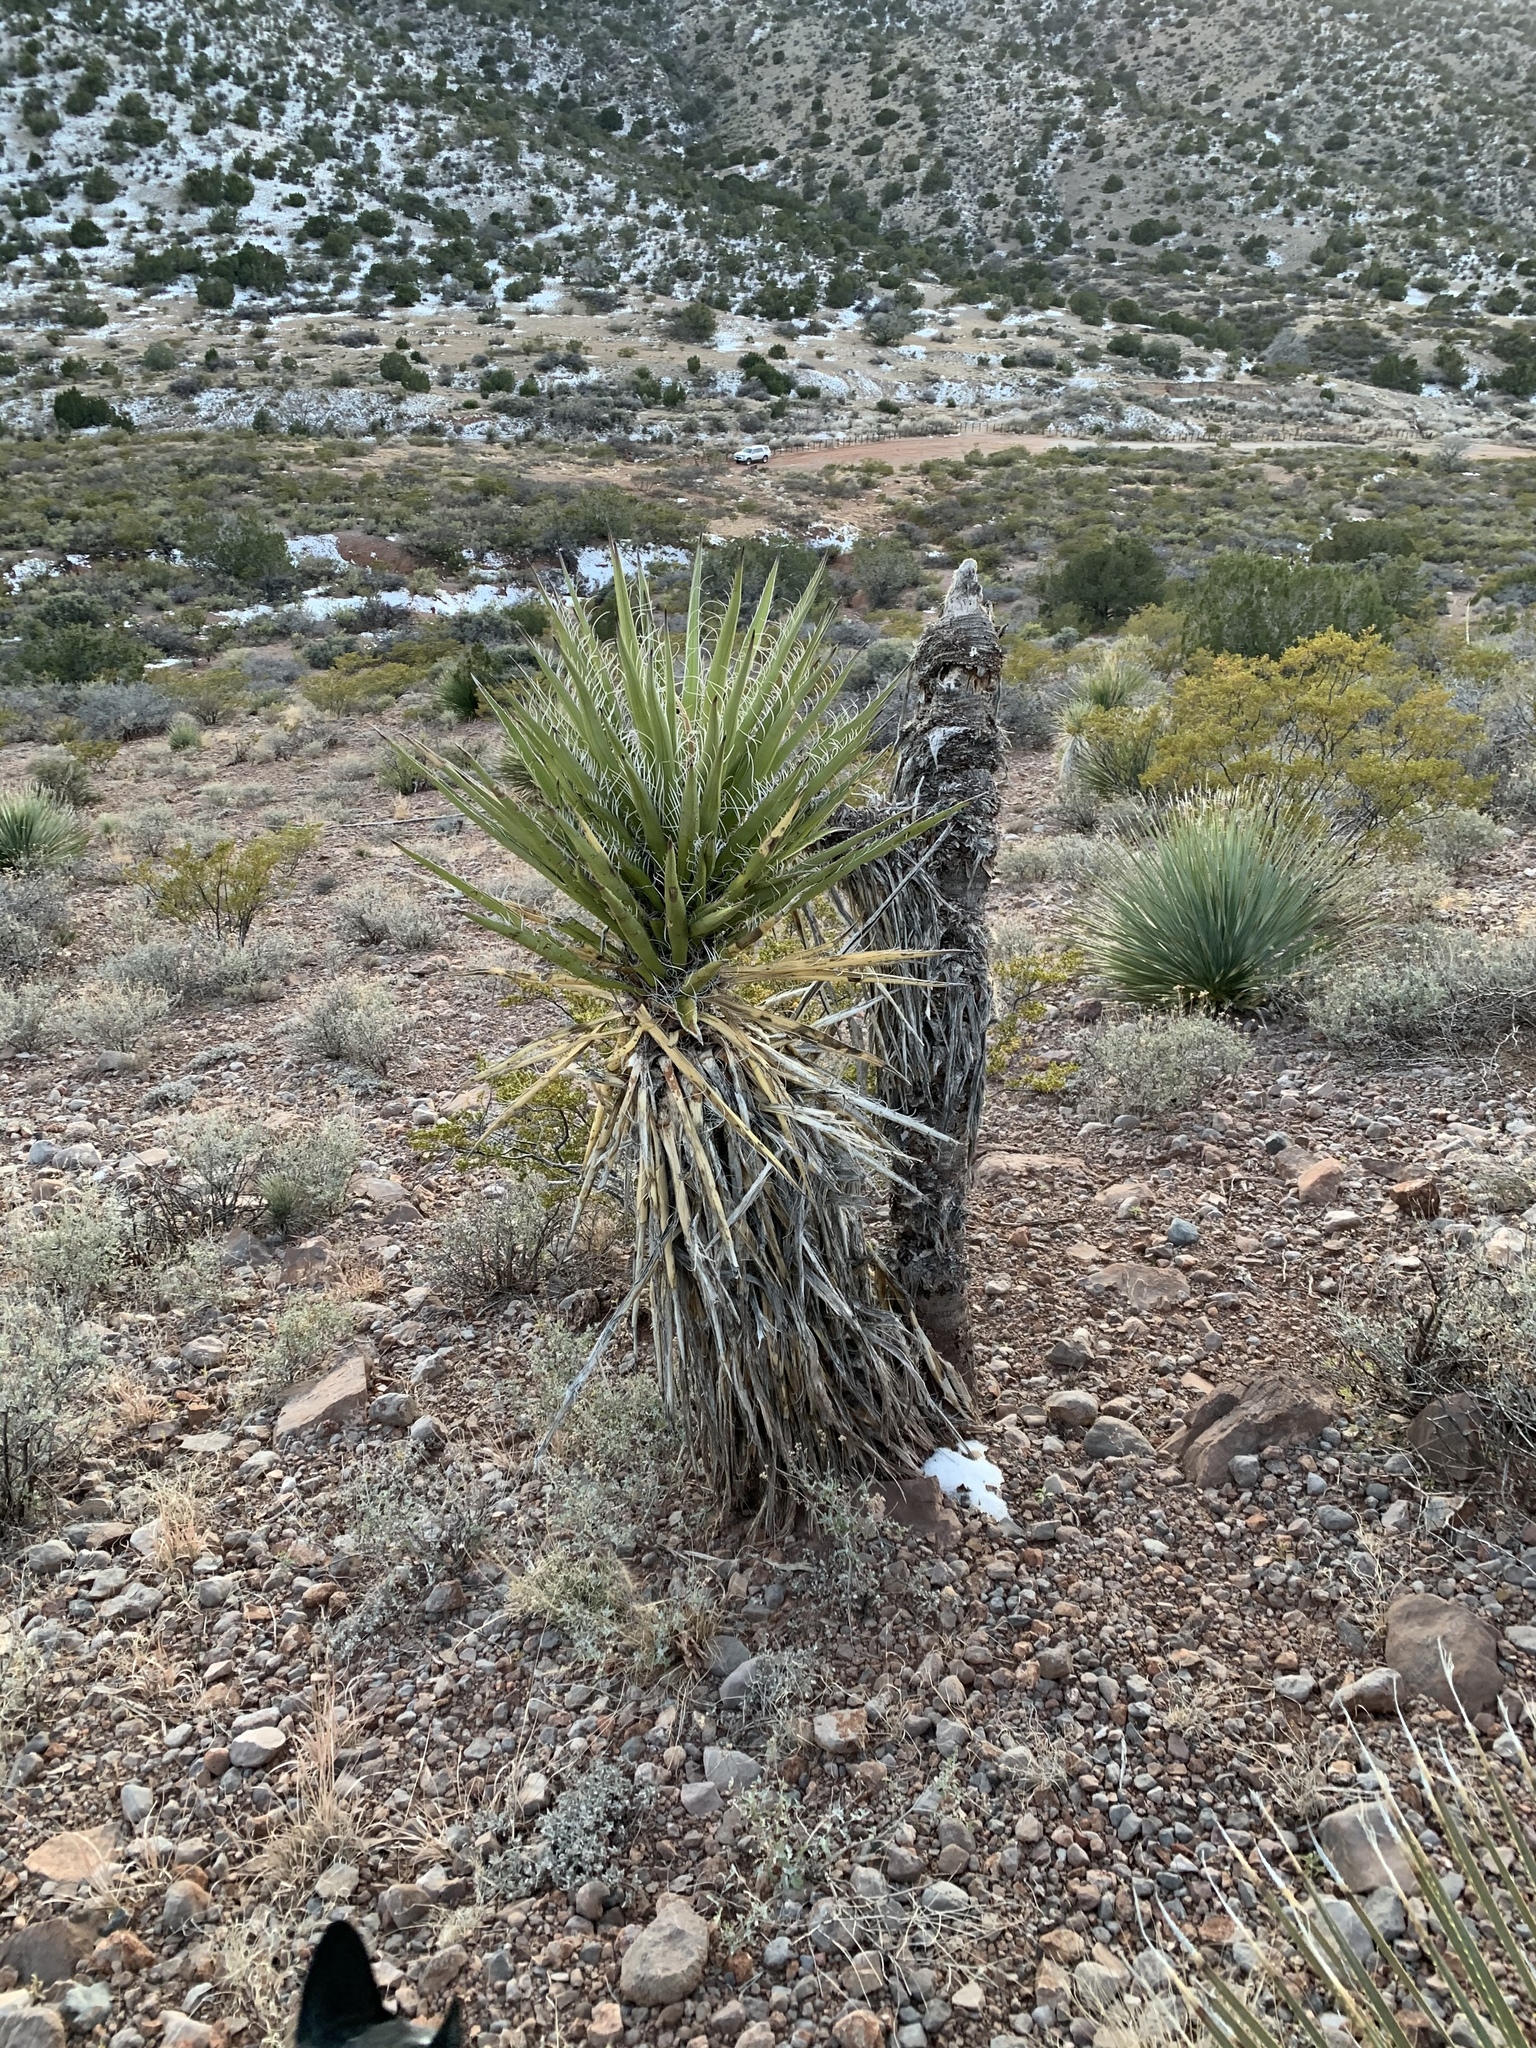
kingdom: Plantae
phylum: Tracheophyta
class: Liliopsida
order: Asparagales
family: Asparagaceae
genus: Yucca
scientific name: Yucca treculiana
